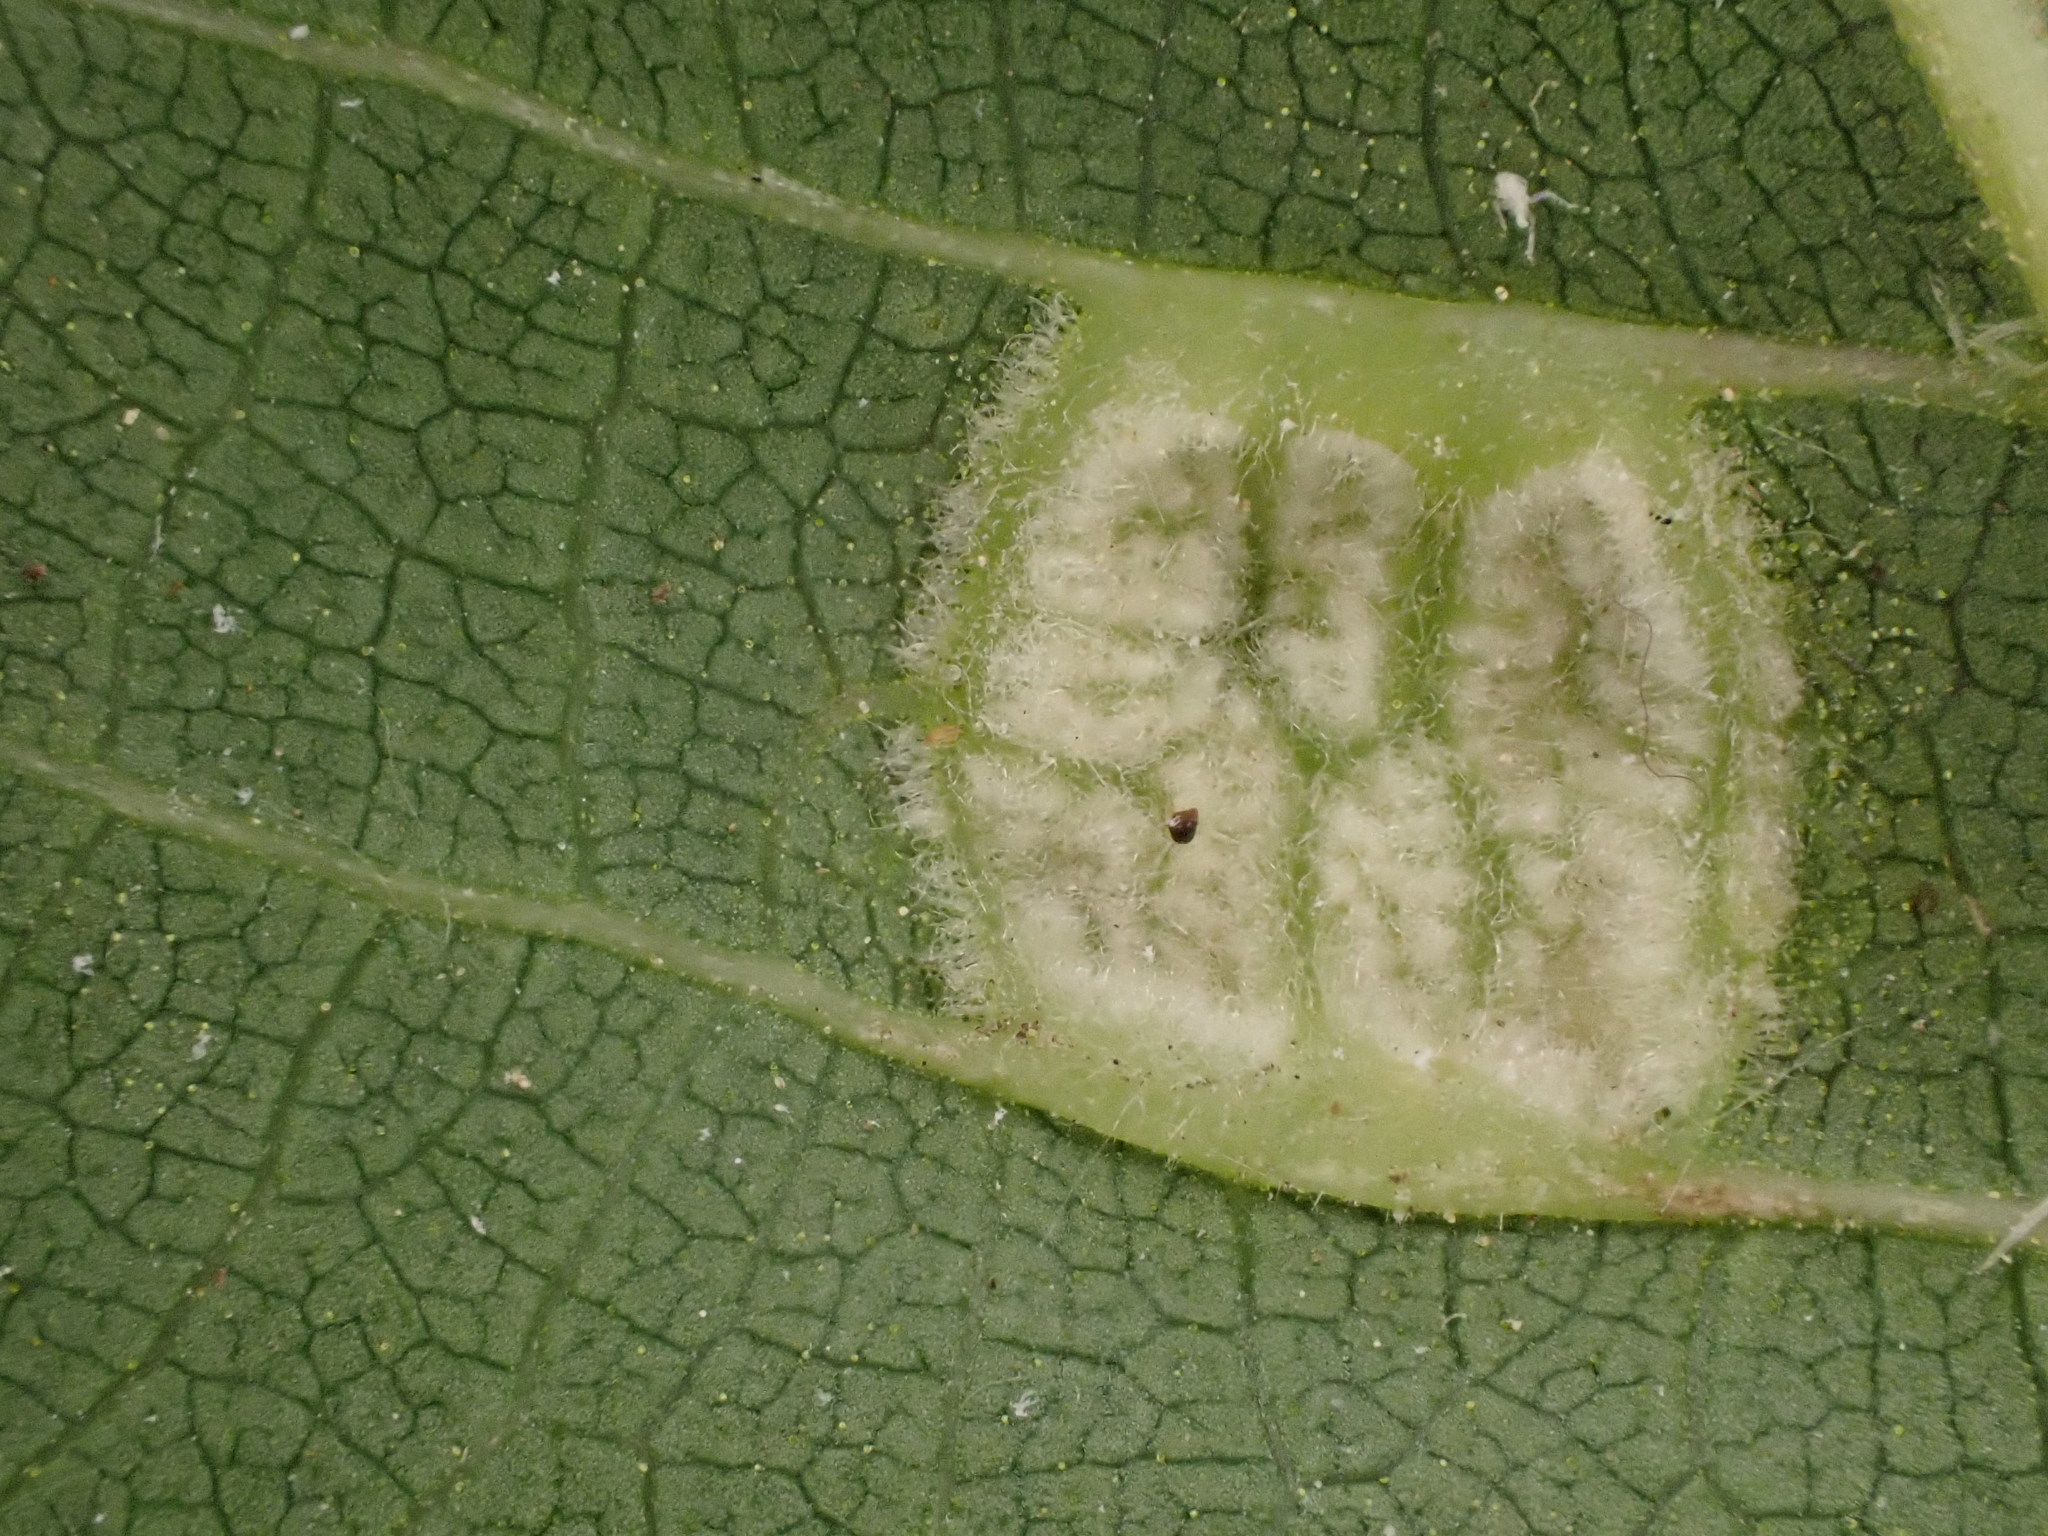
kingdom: Animalia
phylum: Arthropoda
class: Arachnida
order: Trombidiformes
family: Eriophyidae
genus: Aceria
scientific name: Aceria erinea
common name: Persian walnut erineum mite
